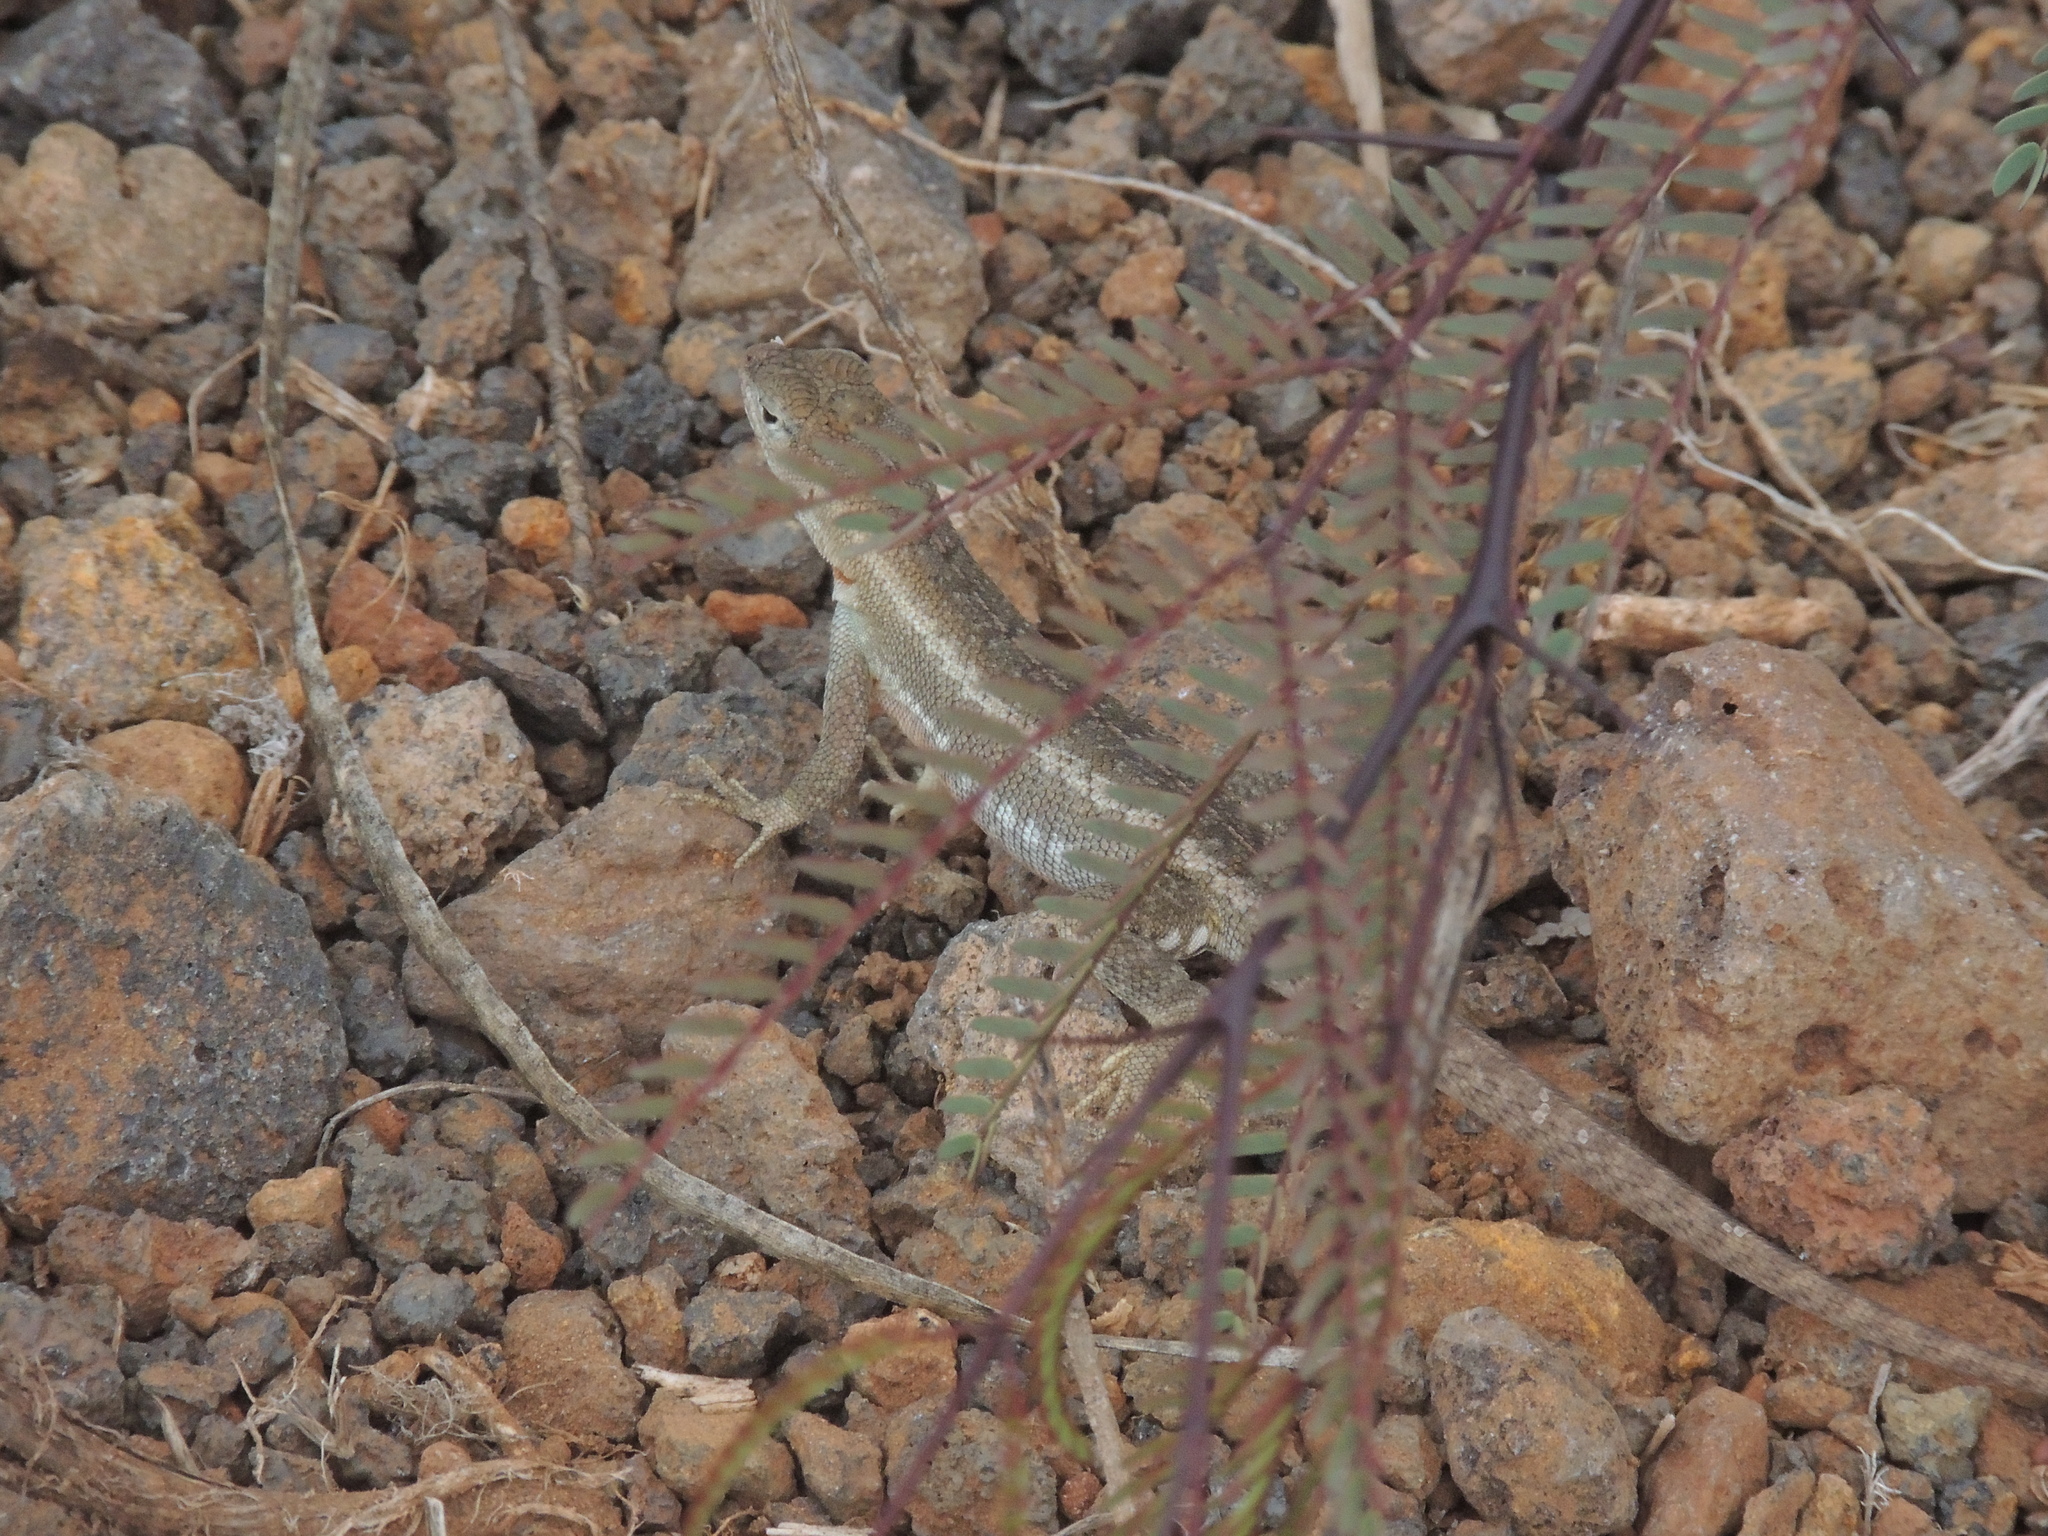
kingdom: Animalia
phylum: Chordata
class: Squamata
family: Tropiduridae
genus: Microlophus
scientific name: Microlophus bivittatus
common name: San cristobal lava lizard
